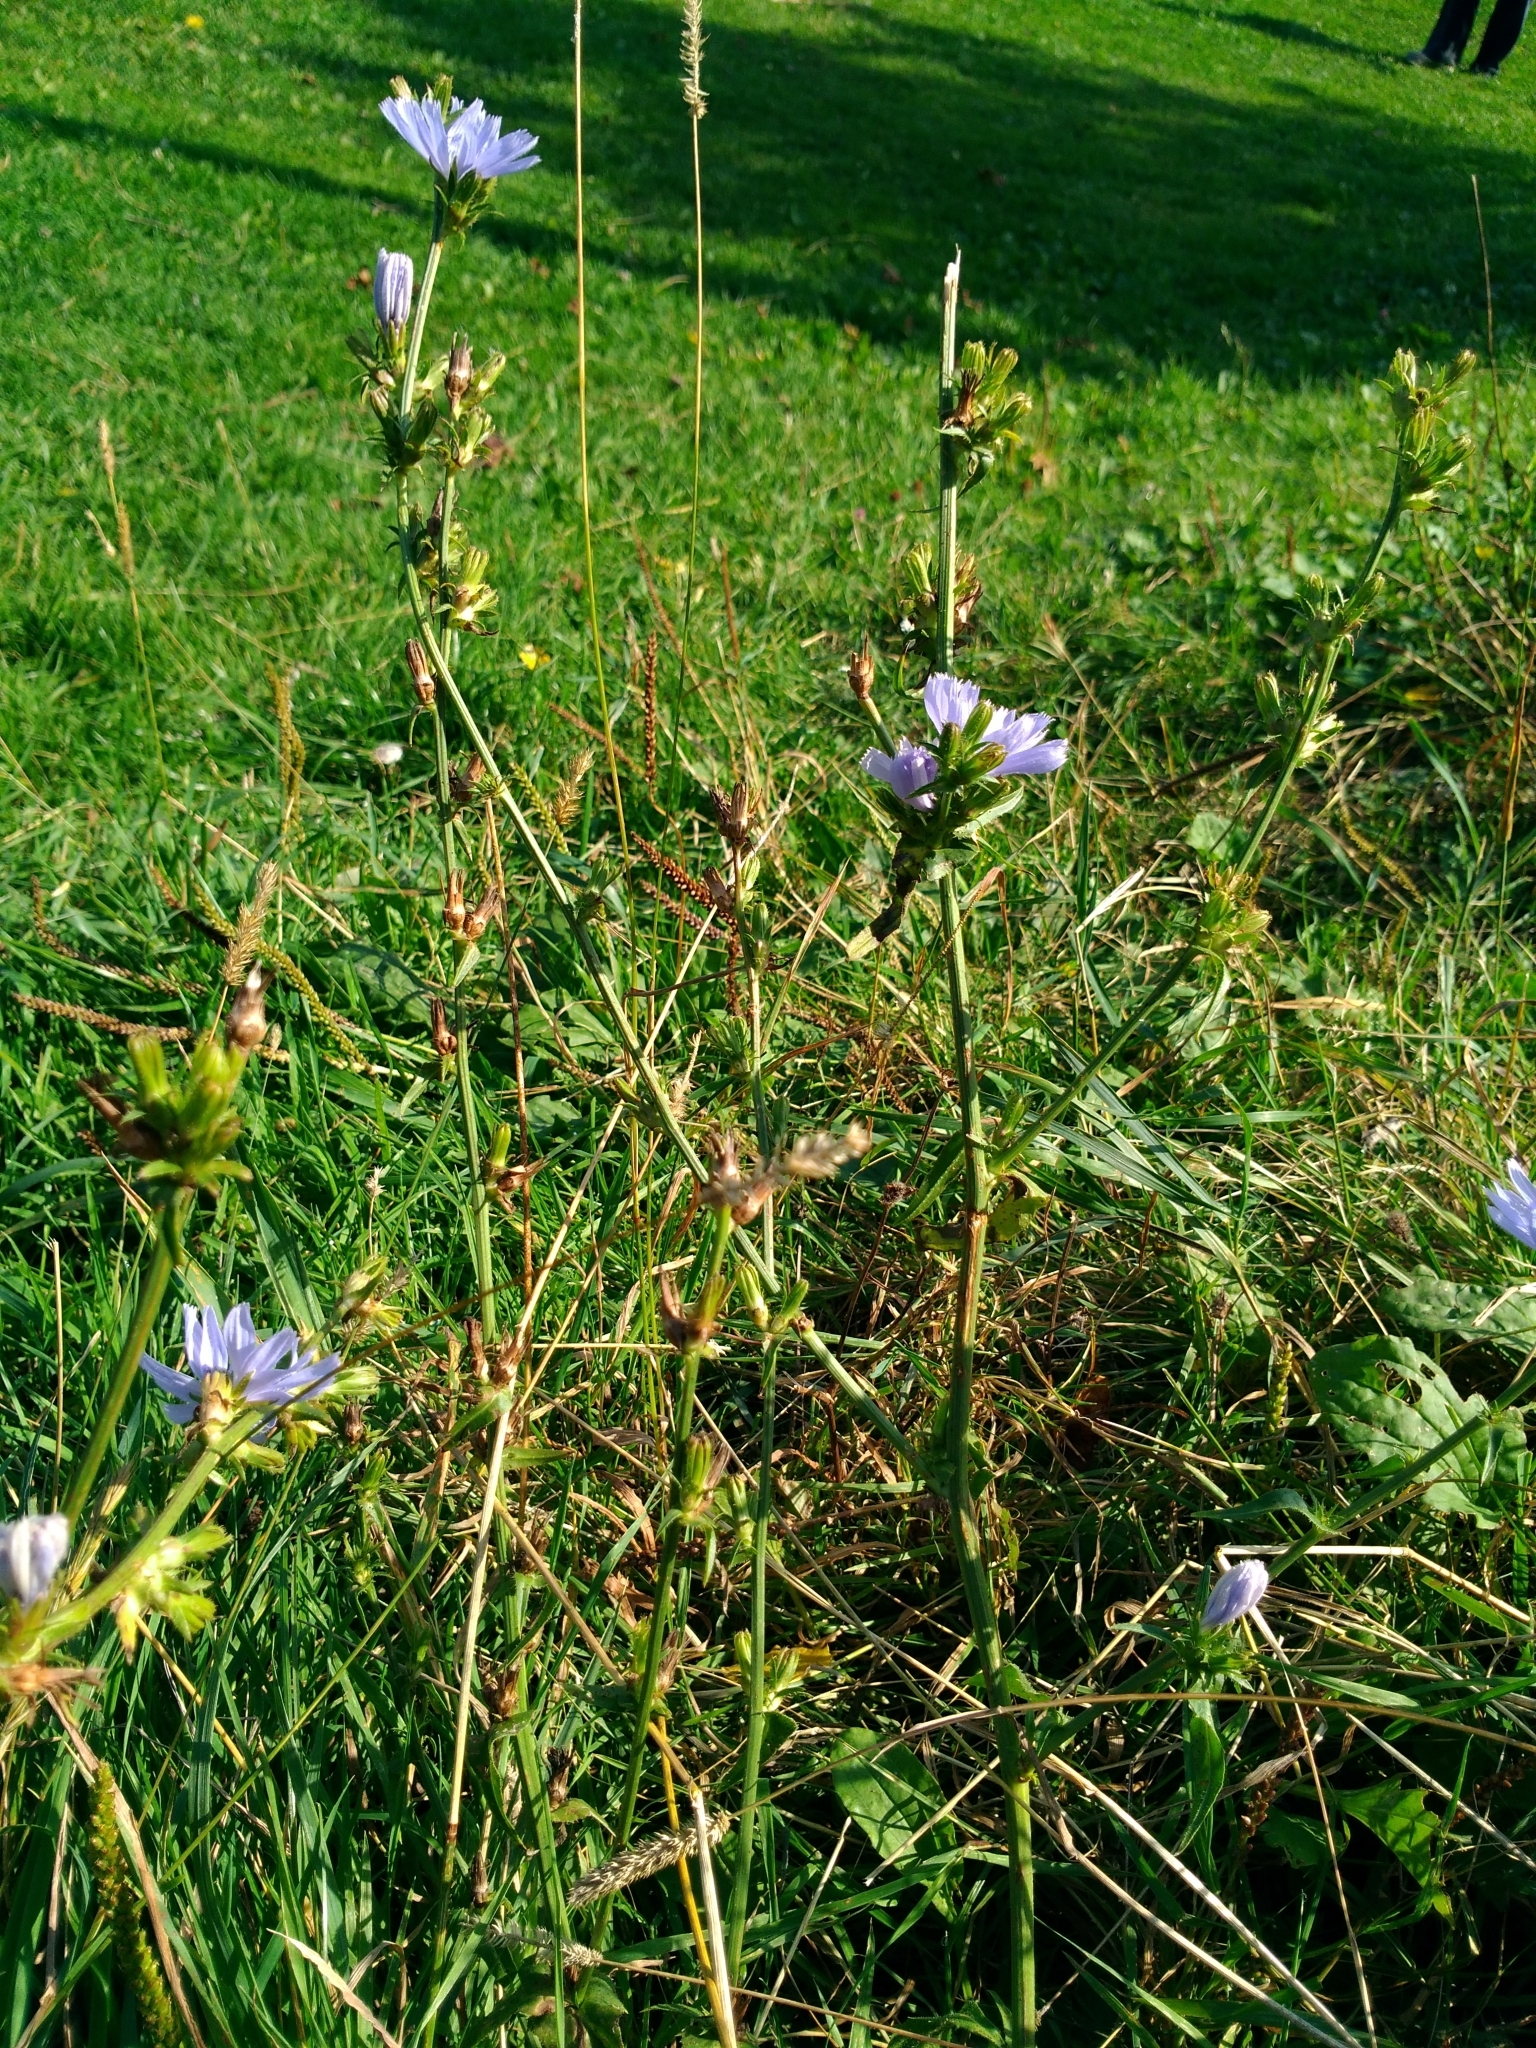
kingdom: Plantae
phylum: Tracheophyta
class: Magnoliopsida
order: Asterales
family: Asteraceae
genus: Cichorium
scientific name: Cichorium intybus
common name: Chicory
